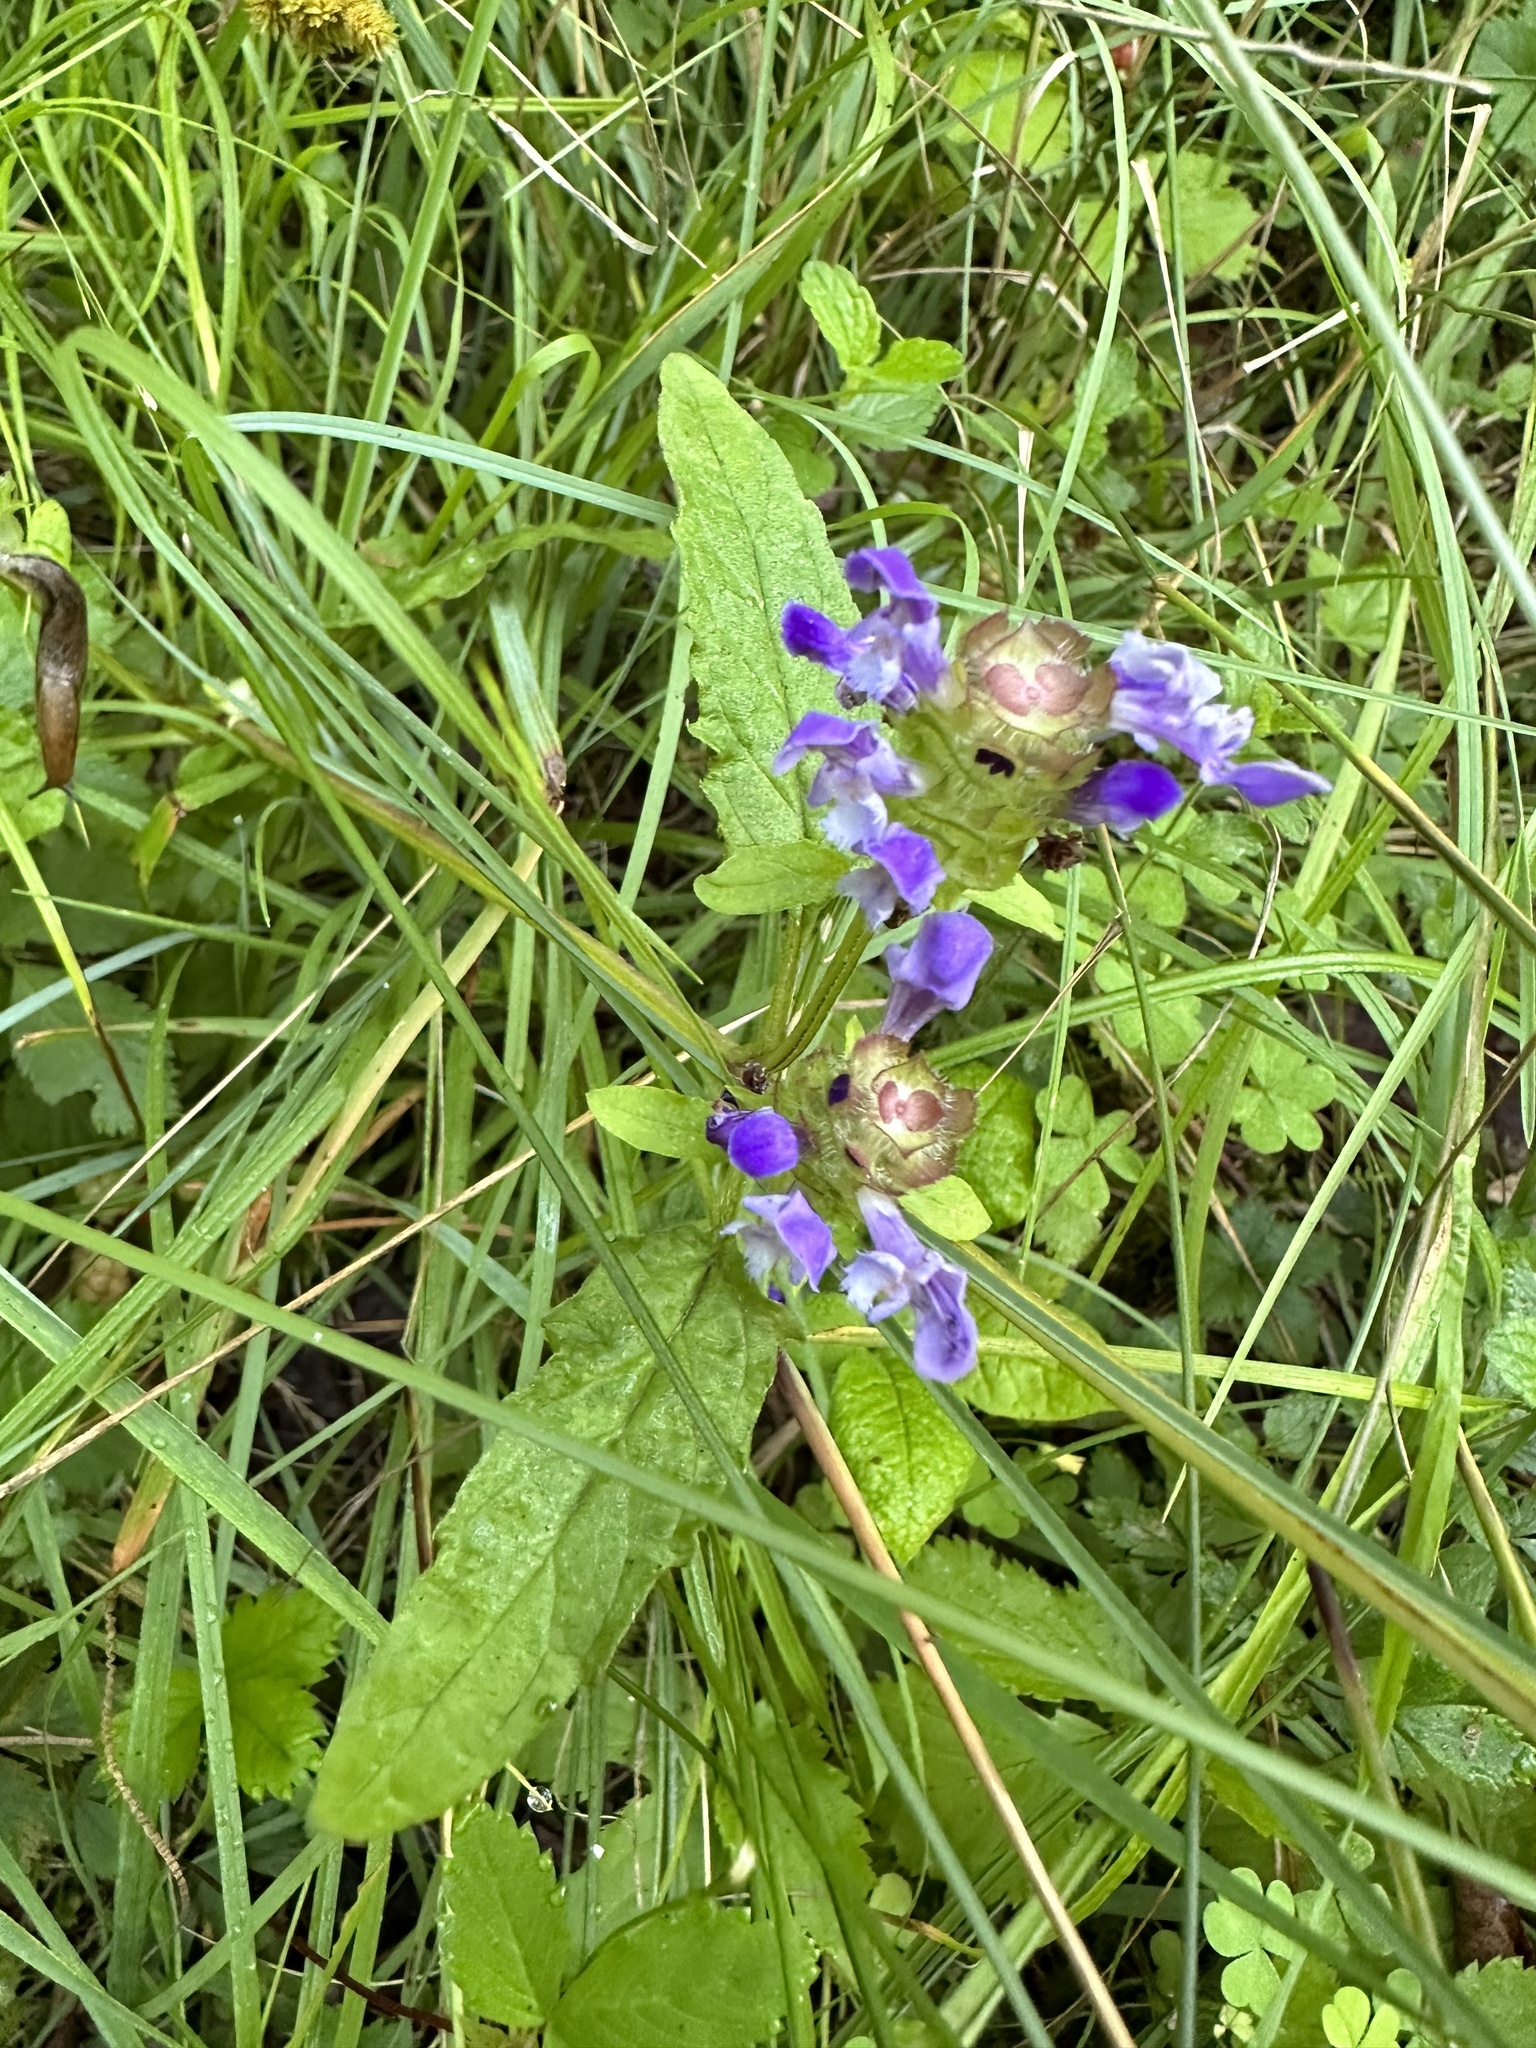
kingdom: Plantae
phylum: Tracheophyta
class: Magnoliopsida
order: Lamiales
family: Lamiaceae
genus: Prunella
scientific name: Prunella vulgaris
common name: Heal-all
